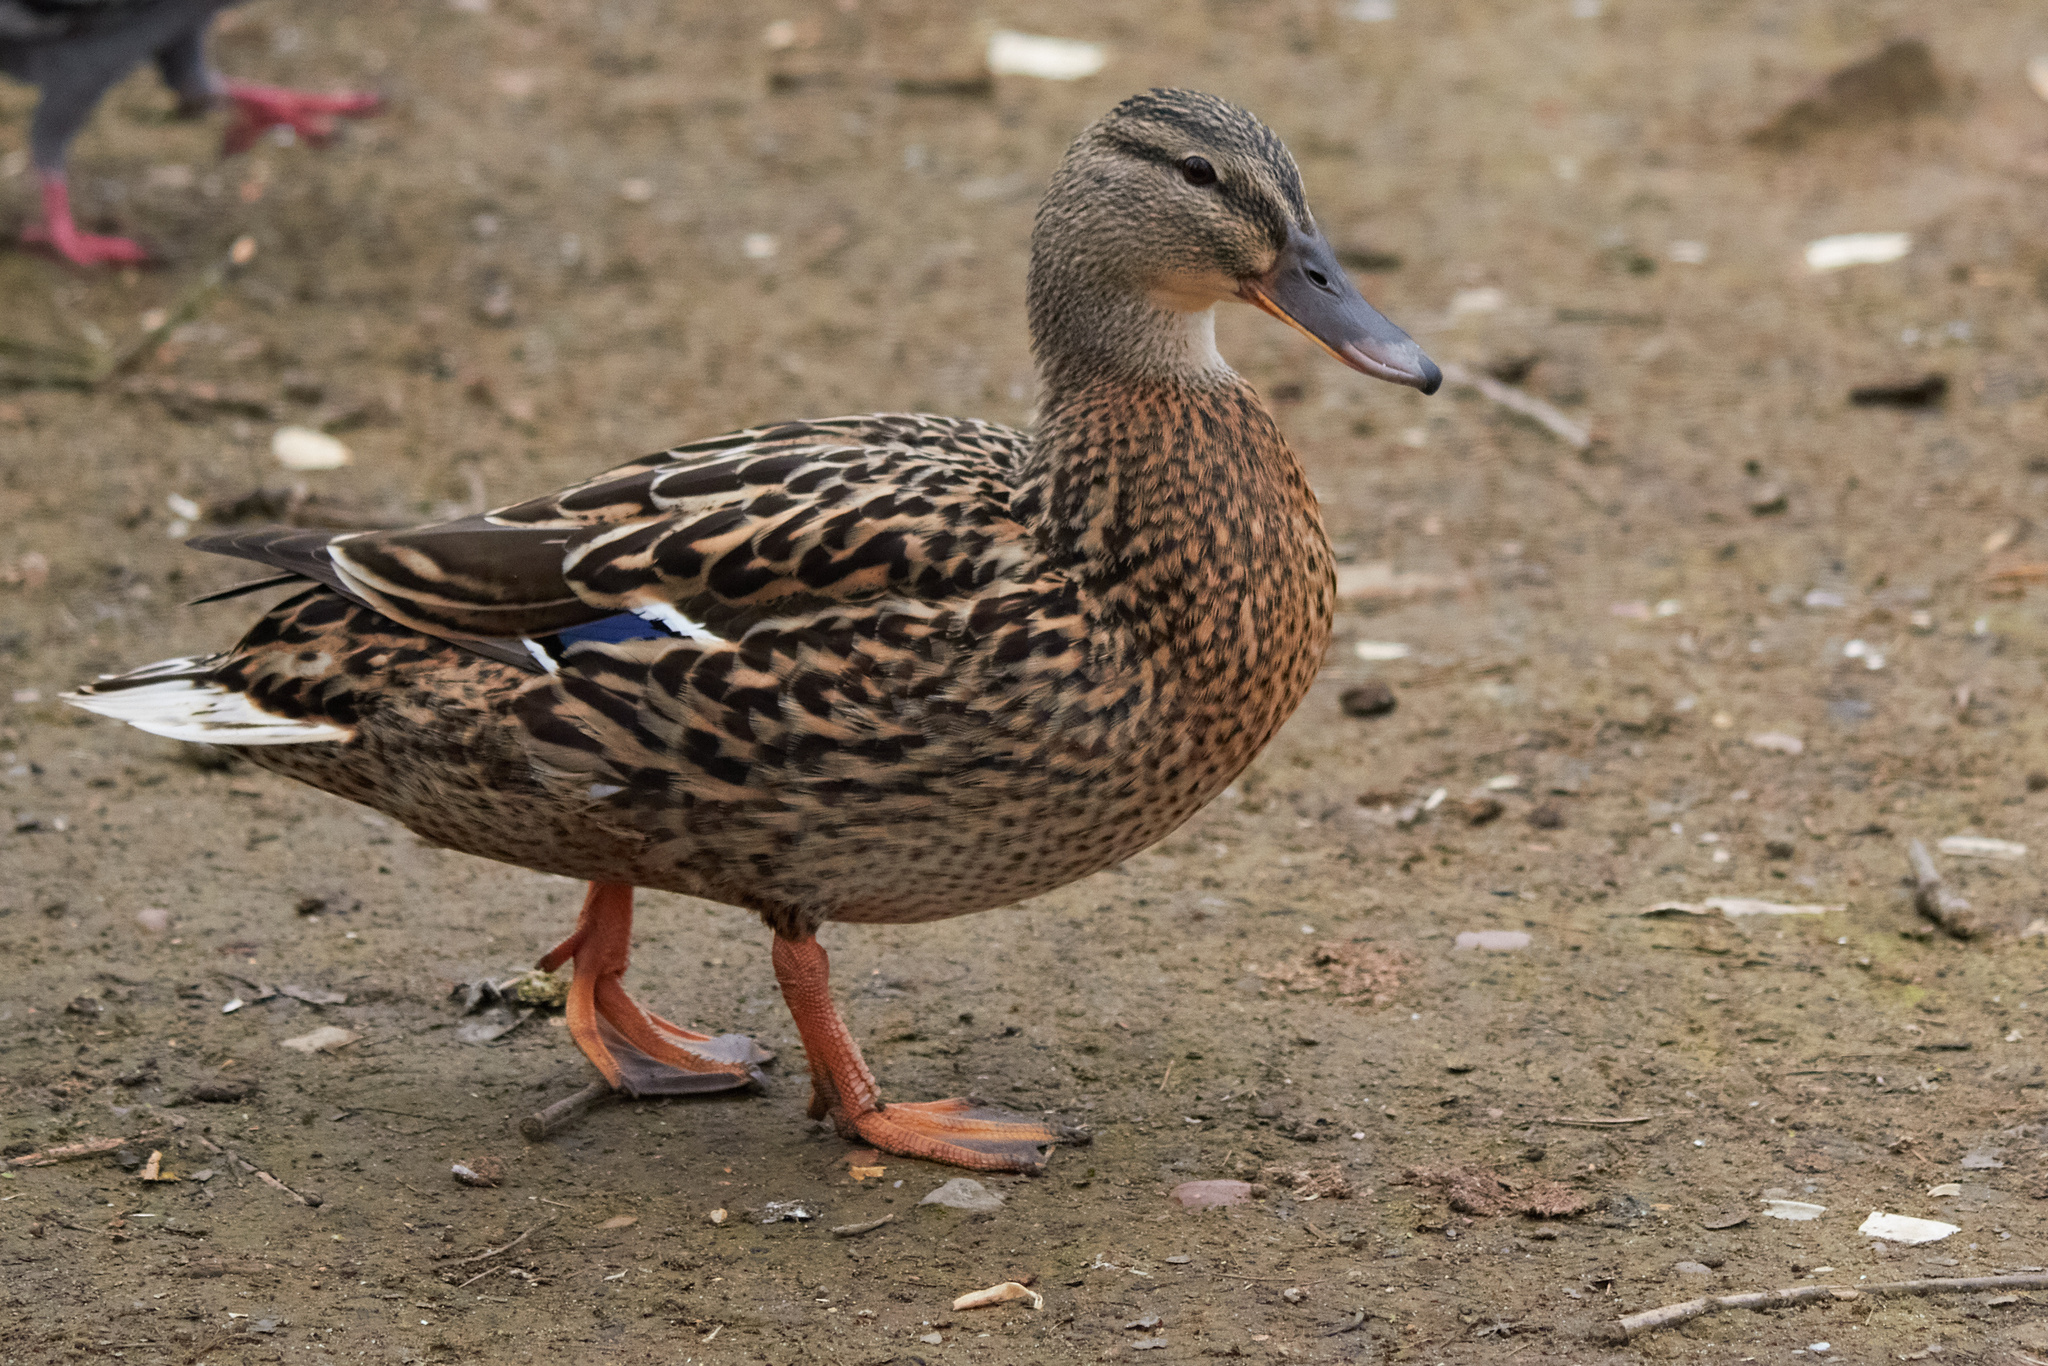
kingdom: Animalia
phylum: Chordata
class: Aves
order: Anseriformes
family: Anatidae
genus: Anas
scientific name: Anas platyrhynchos
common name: Mallard
